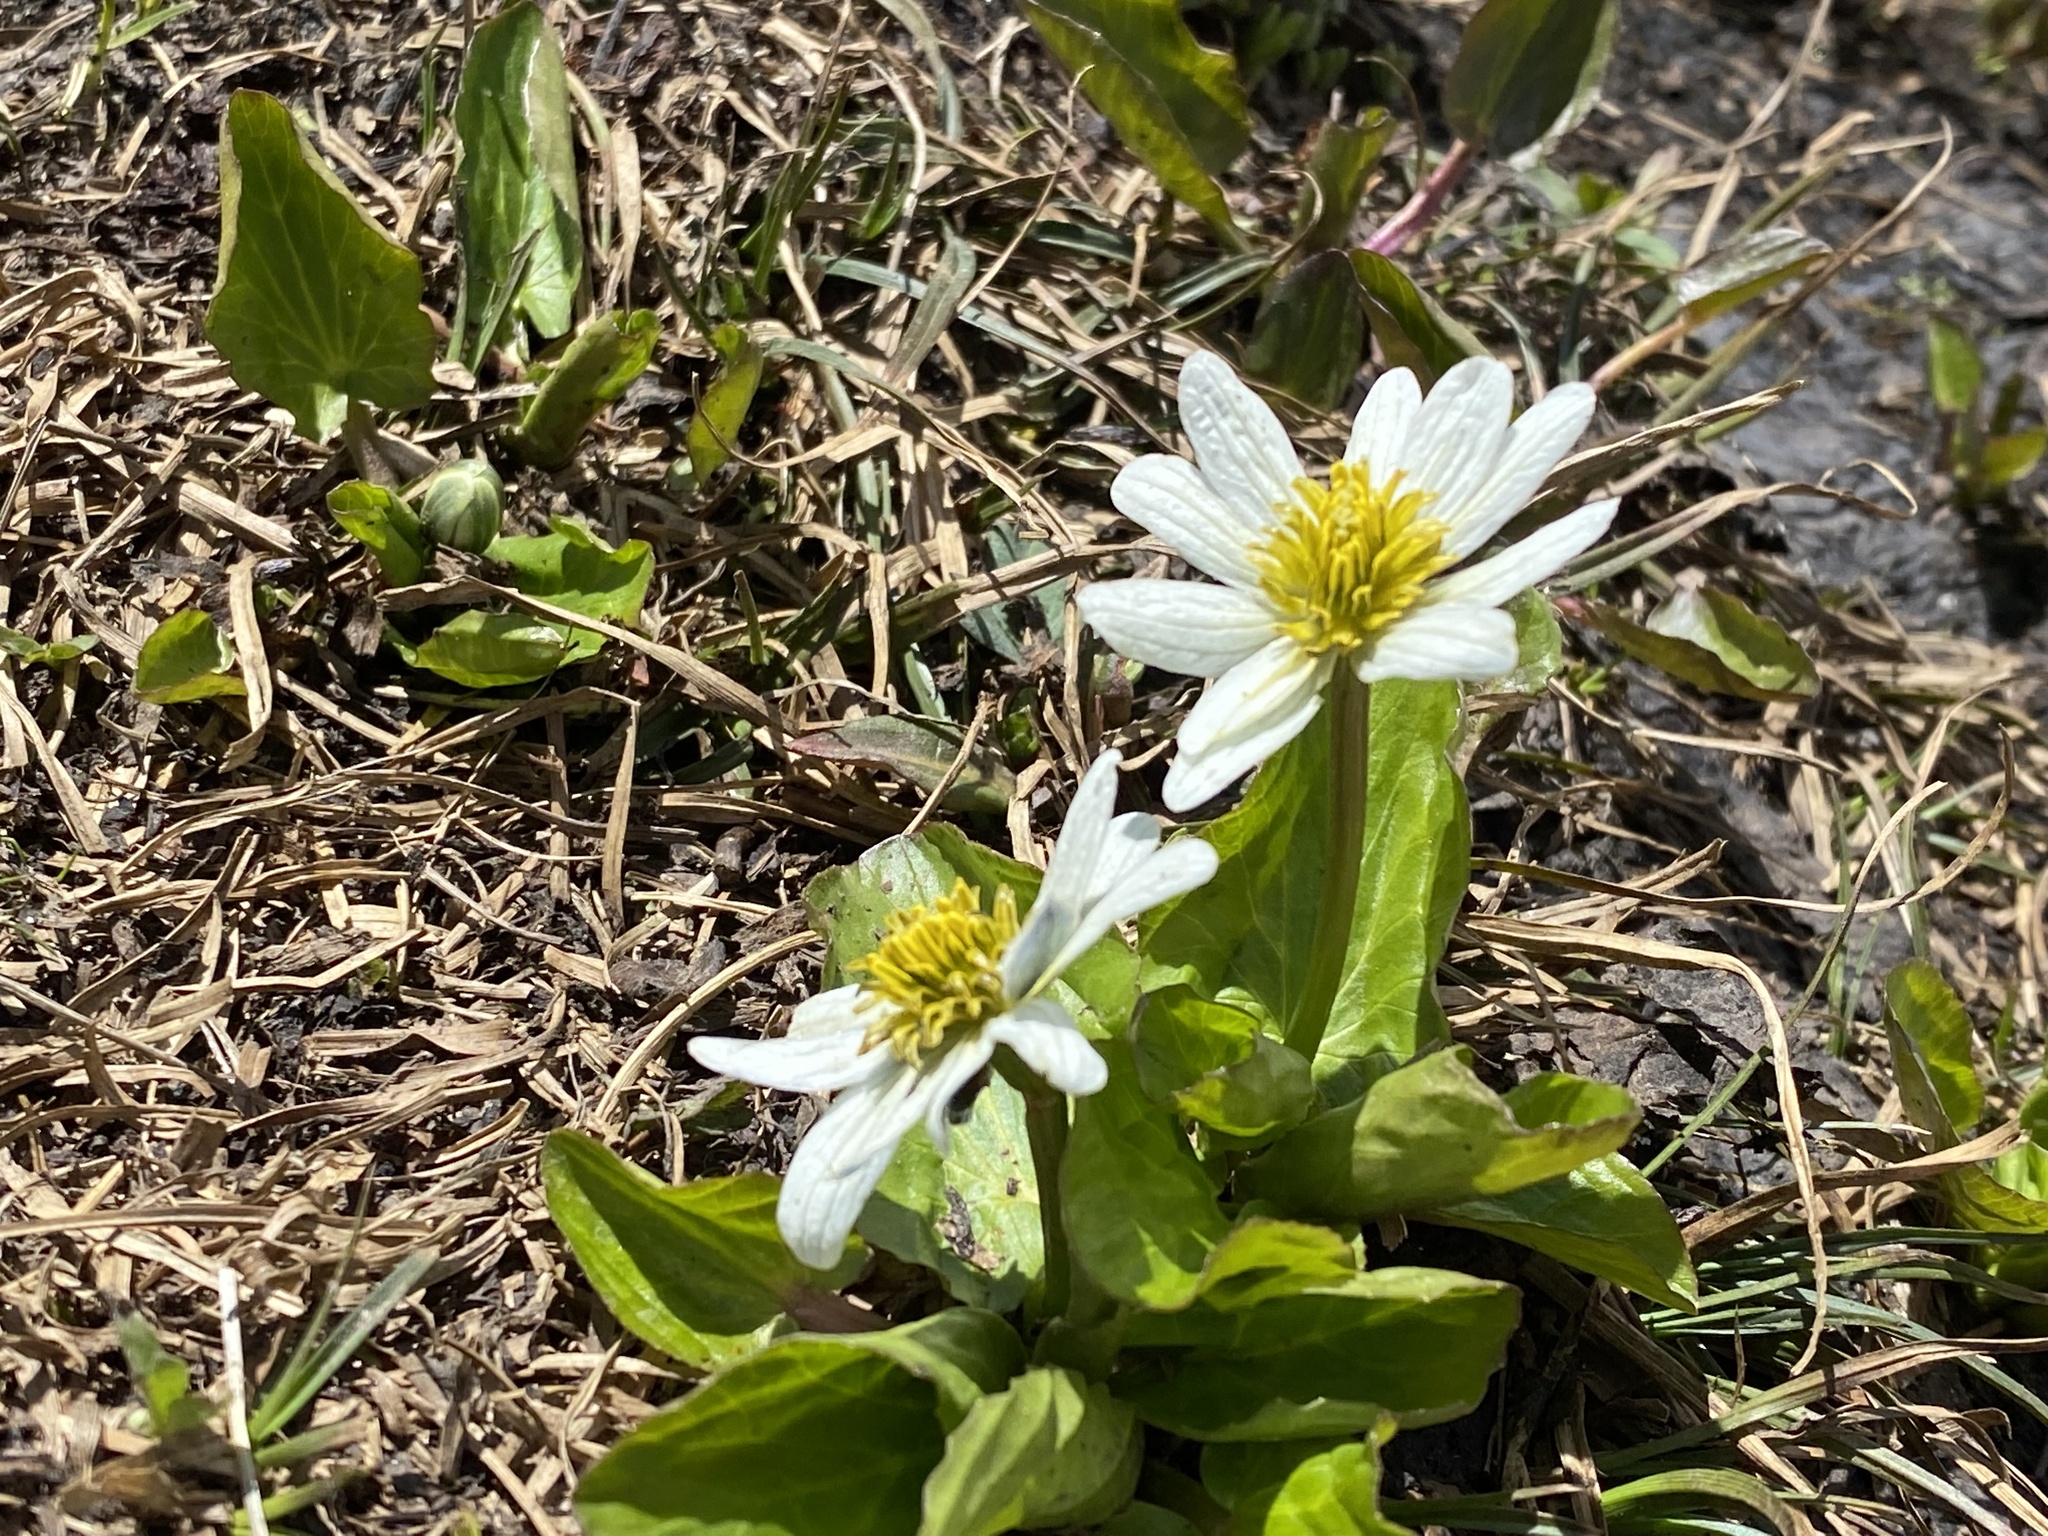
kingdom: Plantae
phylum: Tracheophyta
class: Magnoliopsida
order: Ranunculales
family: Ranunculaceae
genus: Caltha
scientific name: Caltha leptosepala
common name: Elkslip
